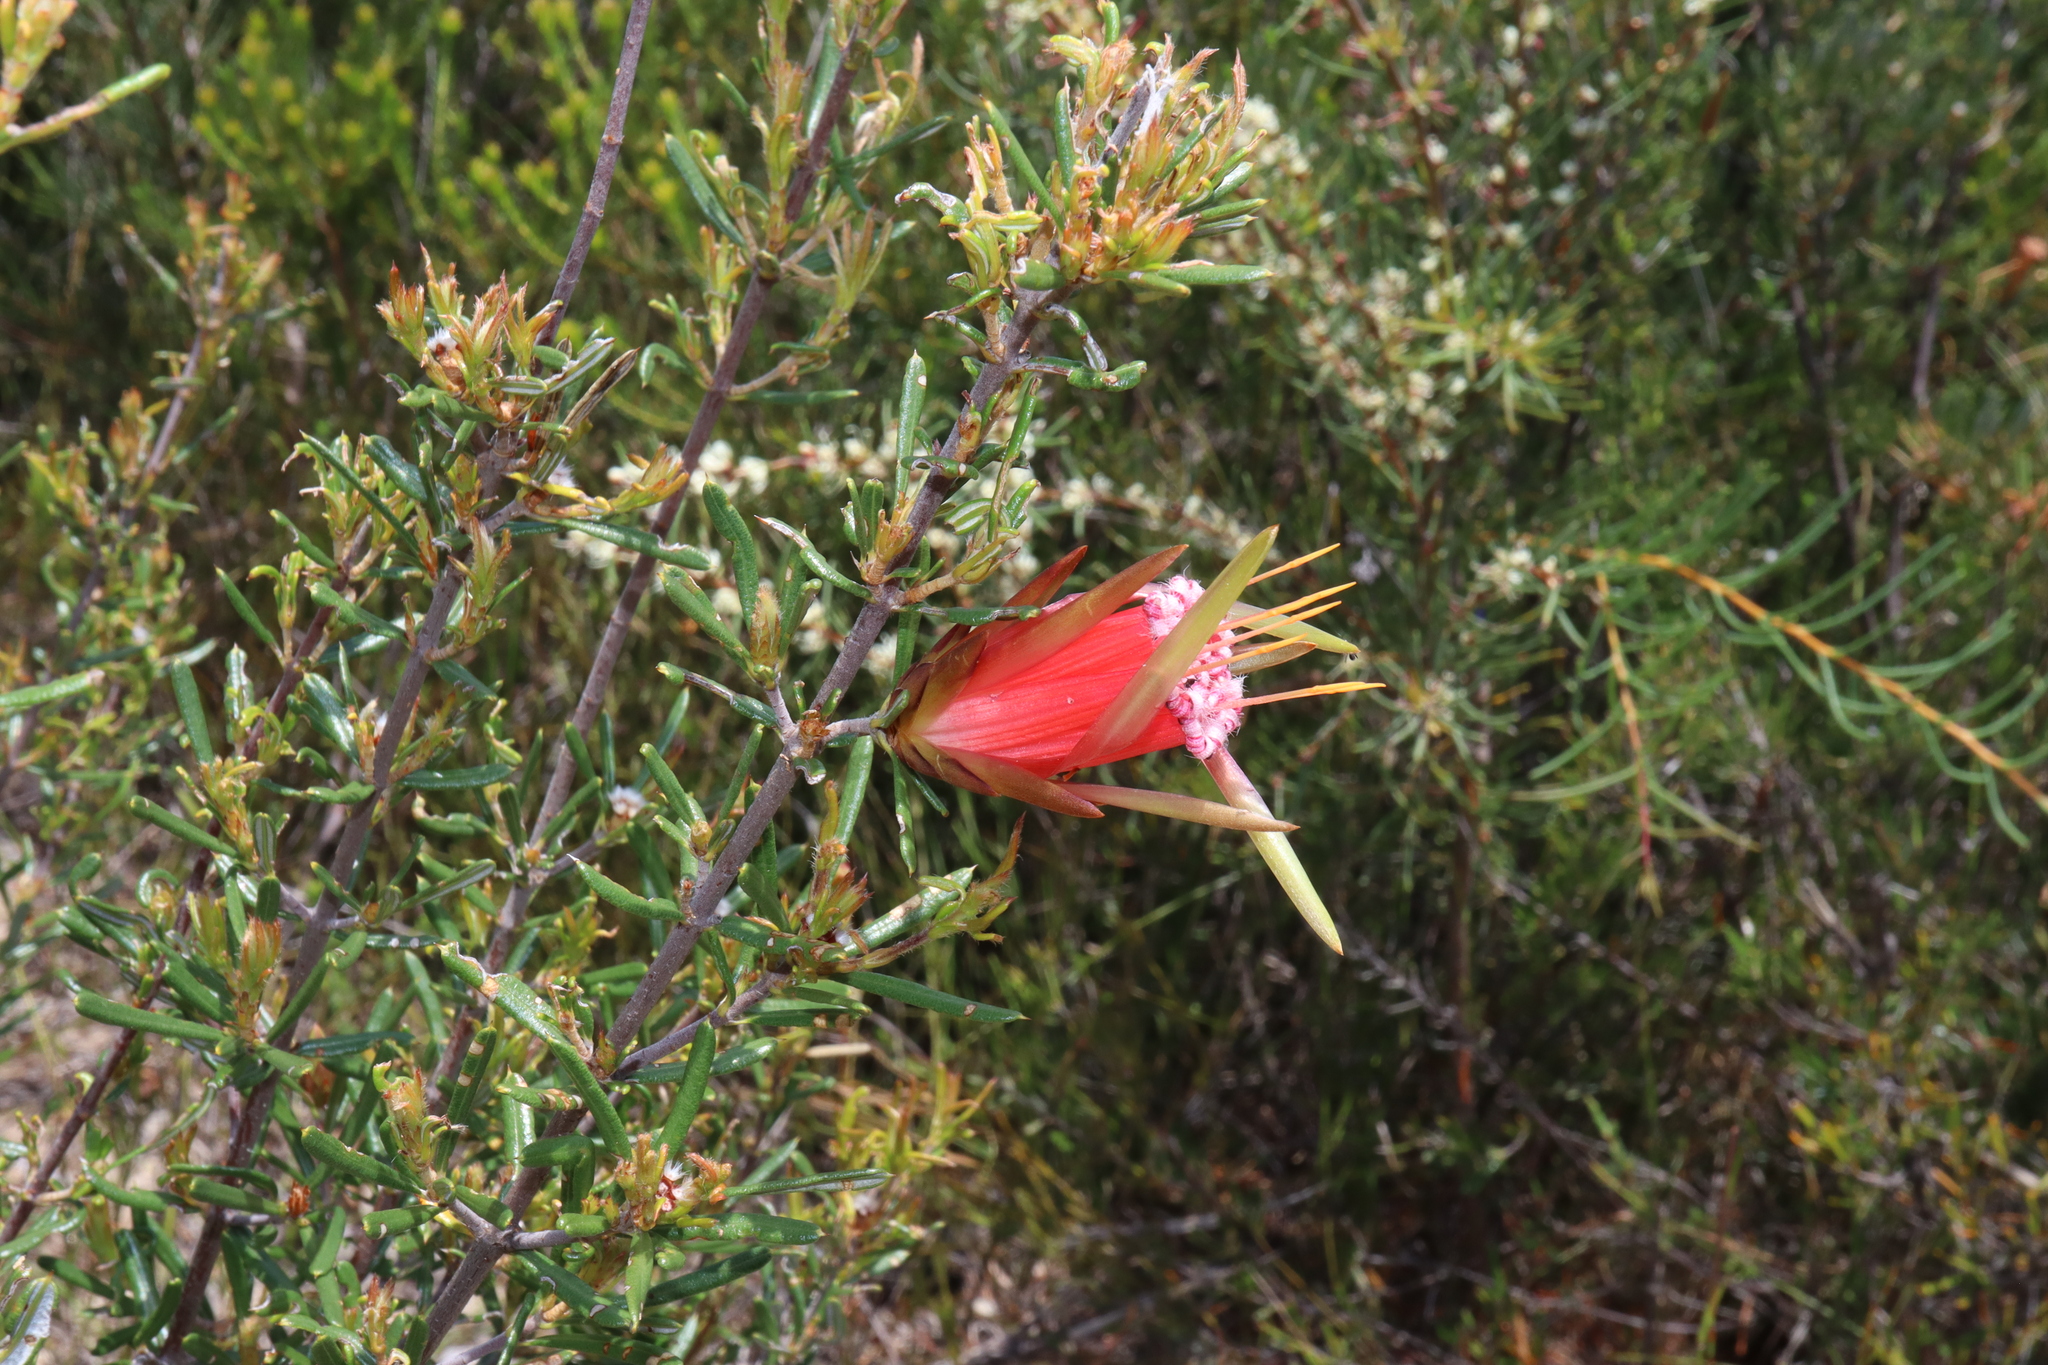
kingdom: Plantae
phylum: Tracheophyta
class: Magnoliopsida
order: Proteales
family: Proteaceae
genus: Lambertia
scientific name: Lambertia formosa
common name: Mountain-devil
